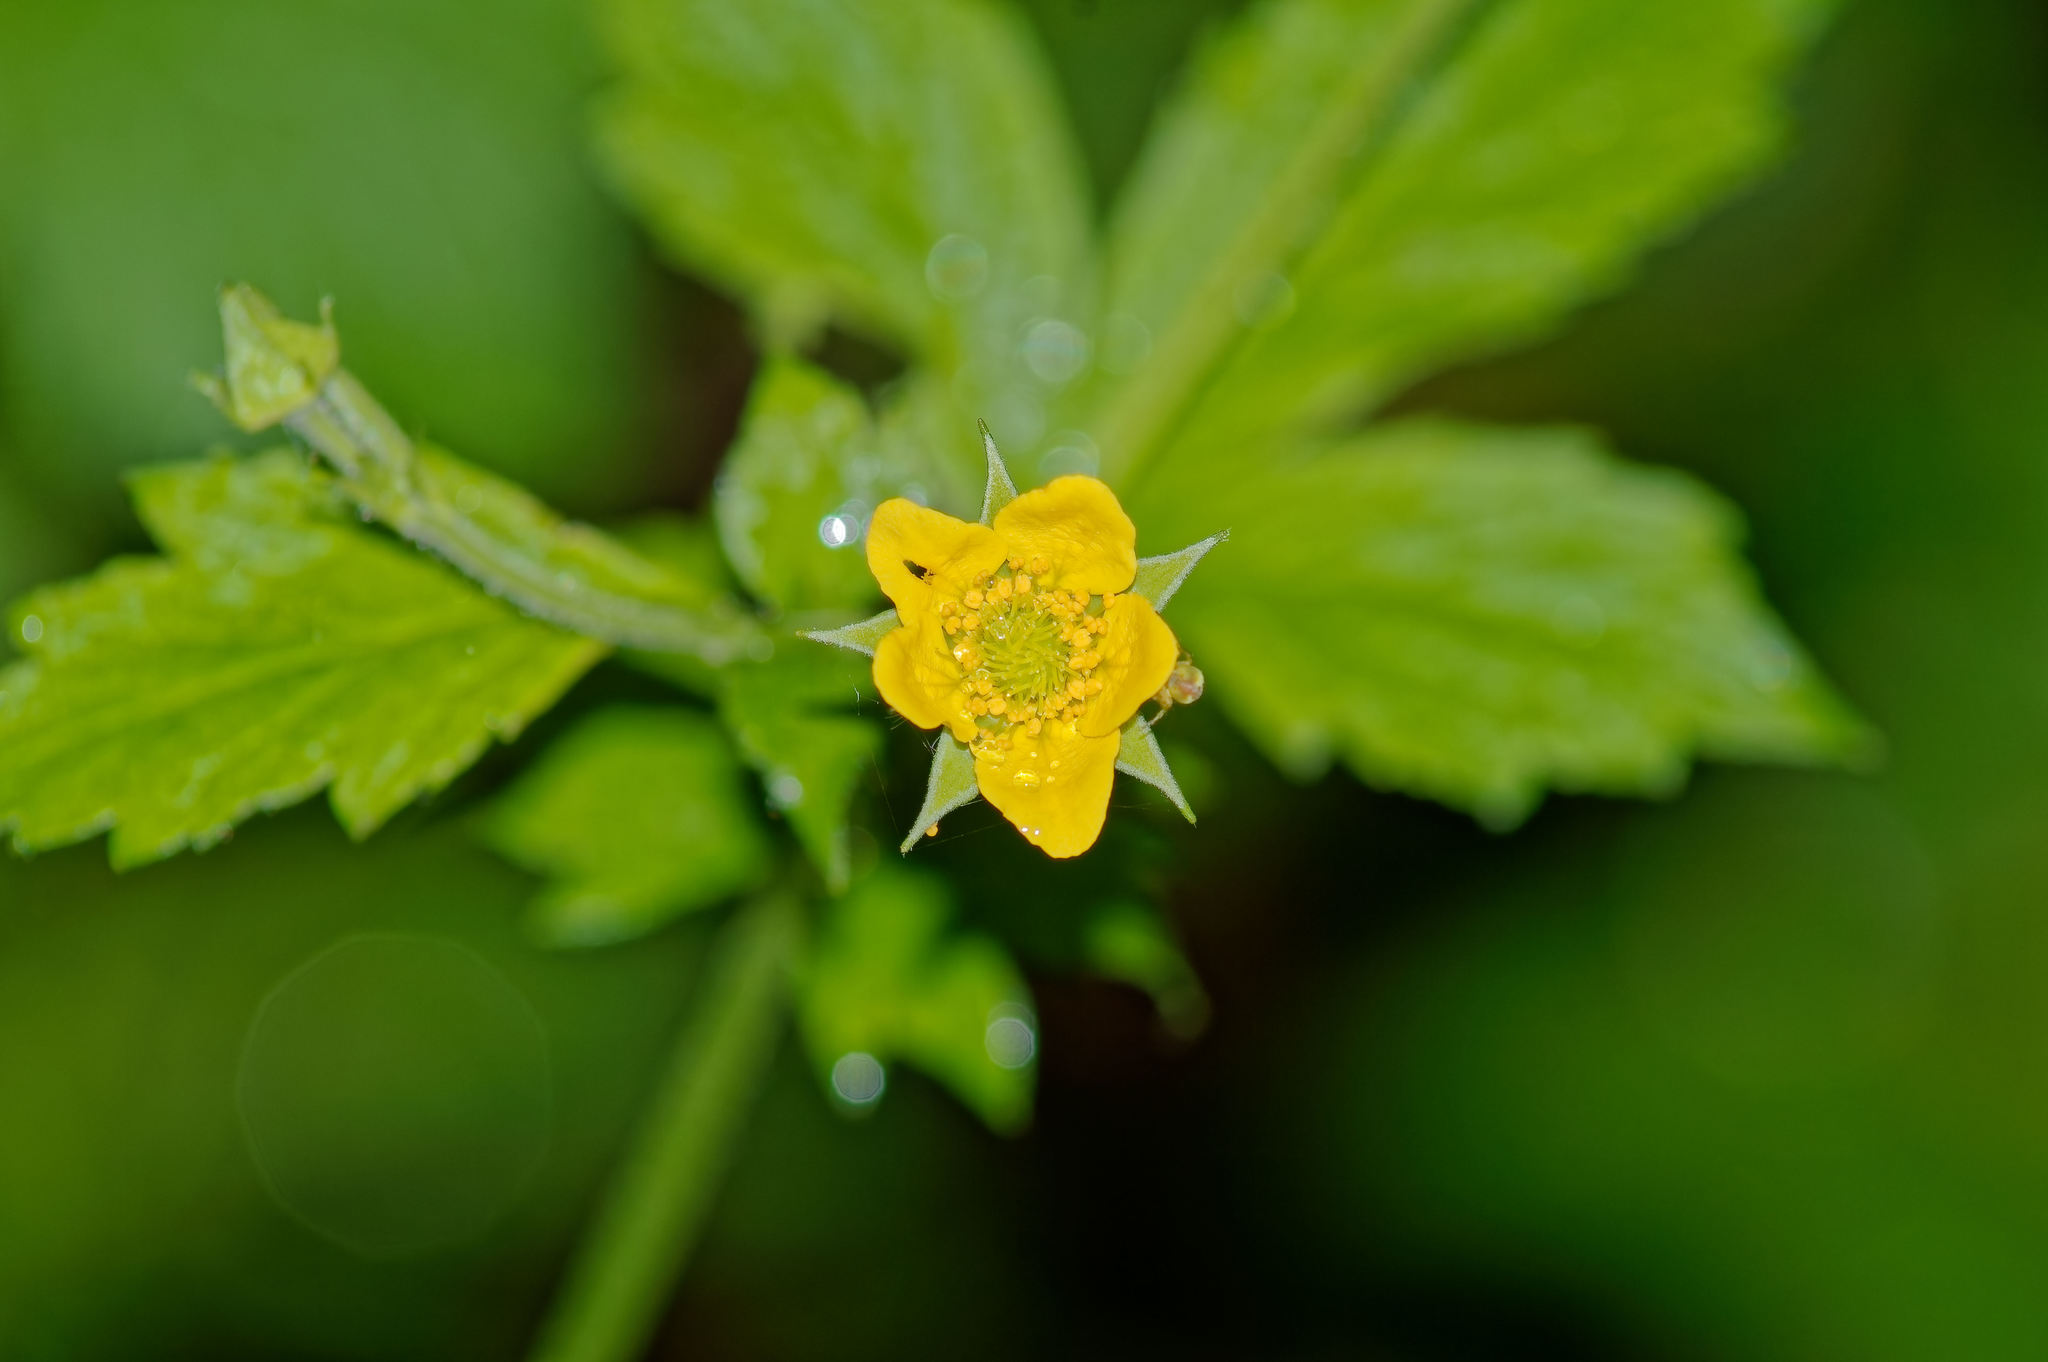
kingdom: Plantae
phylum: Tracheophyta
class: Magnoliopsida
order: Rosales
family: Rosaceae
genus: Geum
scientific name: Geum urbanum
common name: Wood avens
